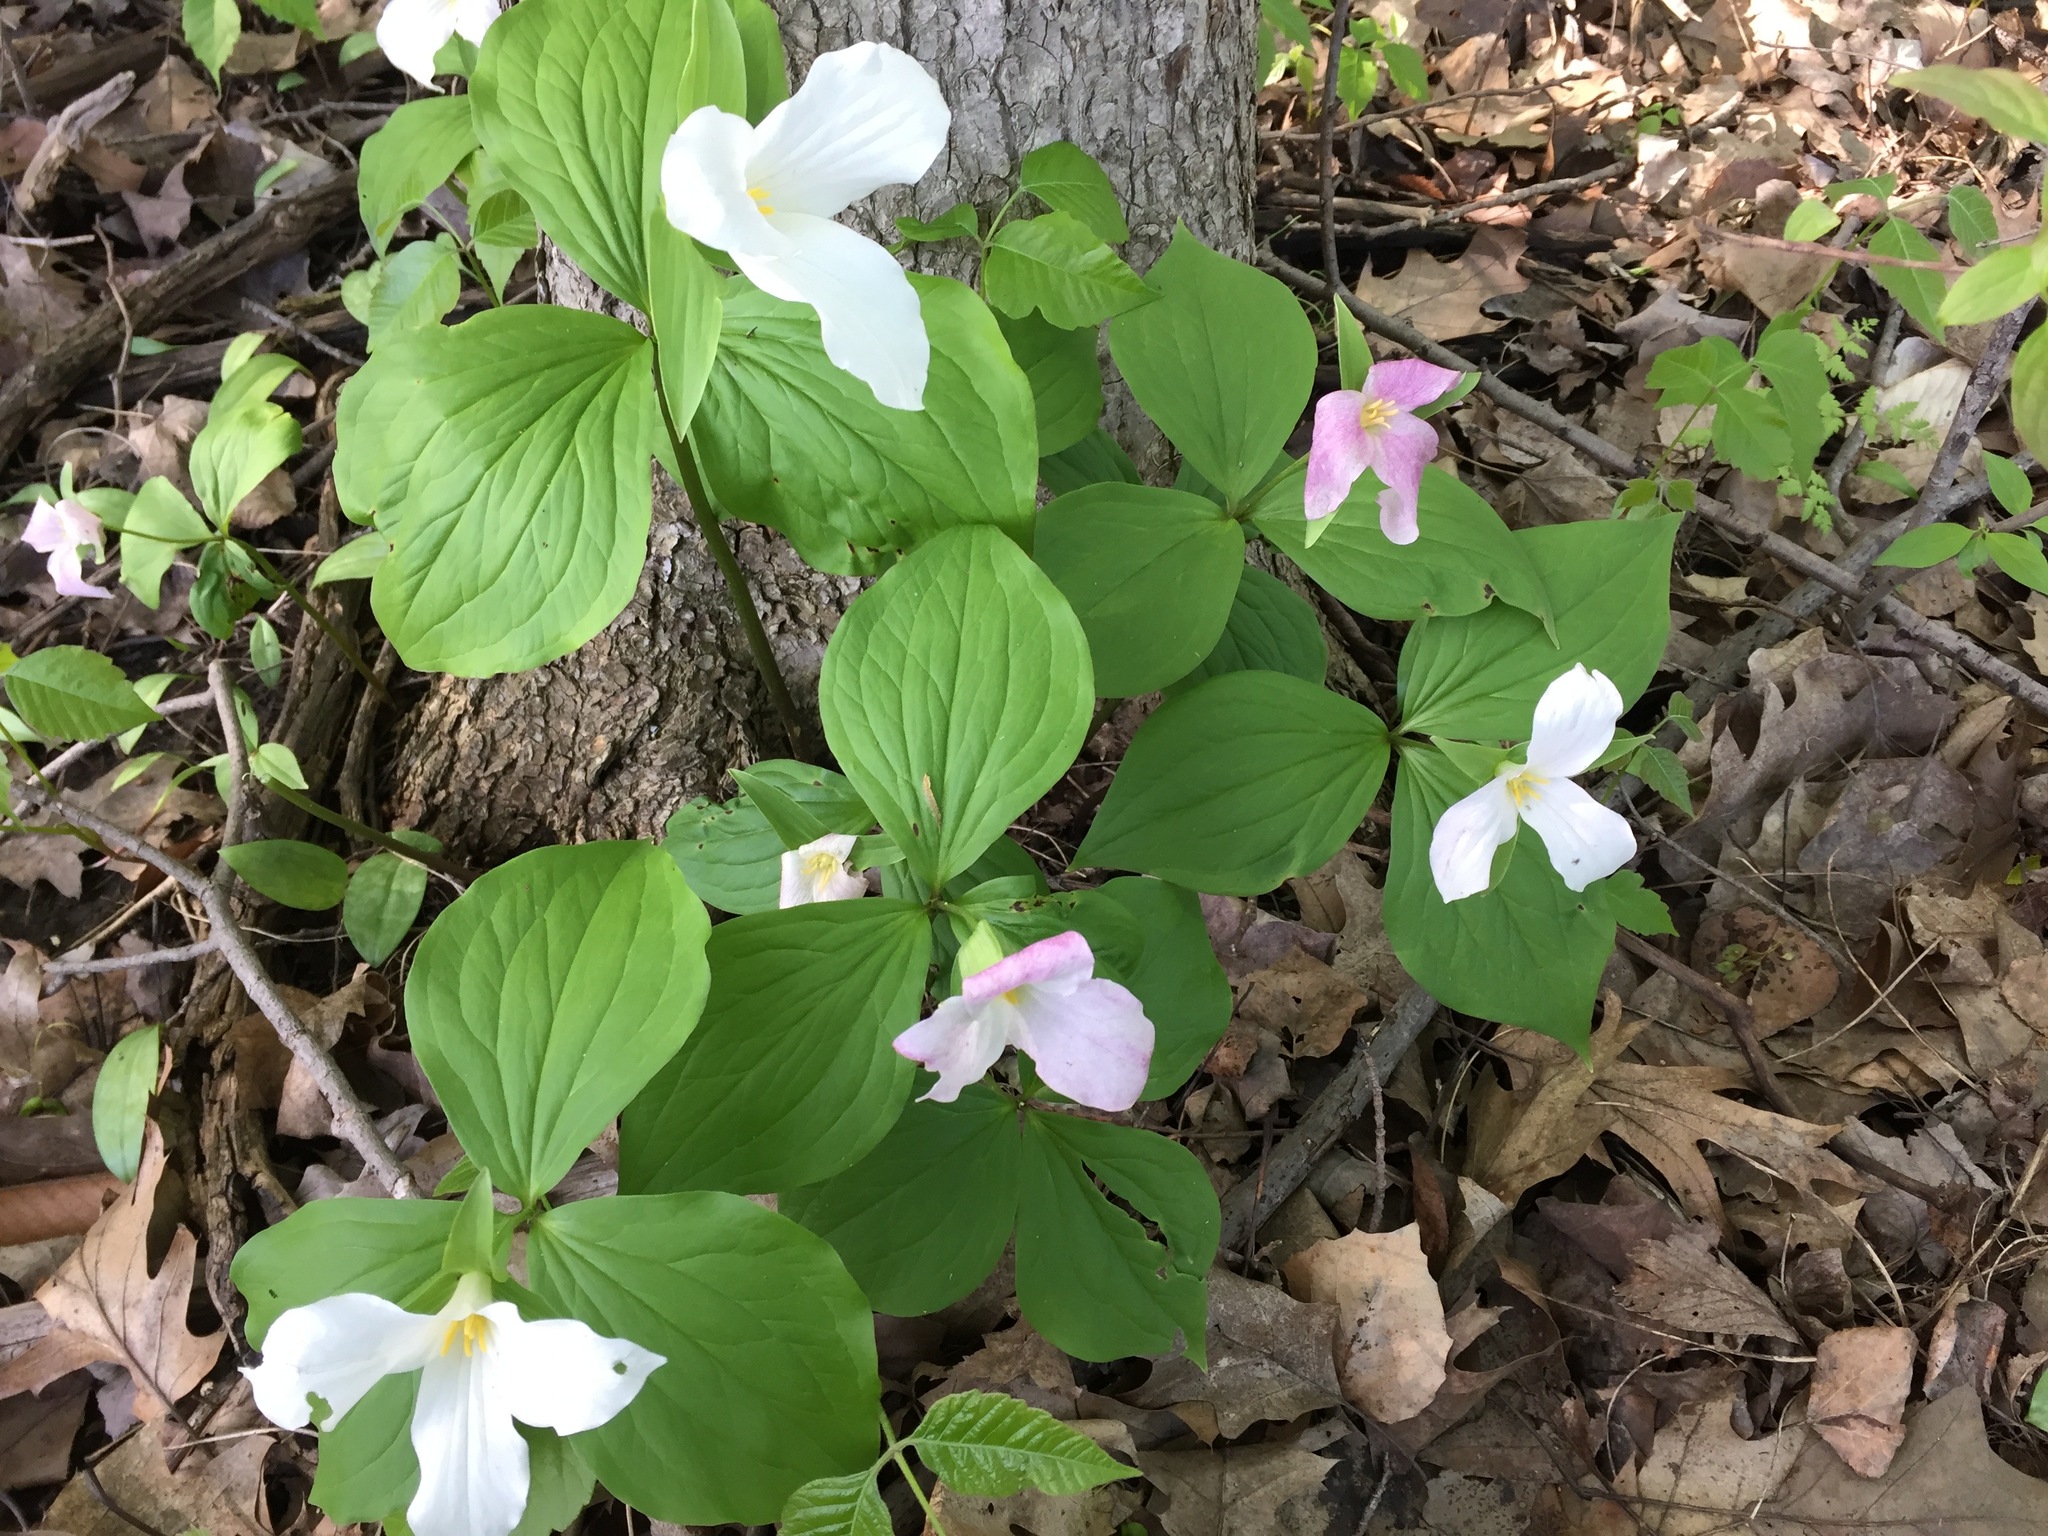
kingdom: Plantae
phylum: Tracheophyta
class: Liliopsida
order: Liliales
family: Melanthiaceae
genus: Trillium
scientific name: Trillium grandiflorum
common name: Great white trillium
